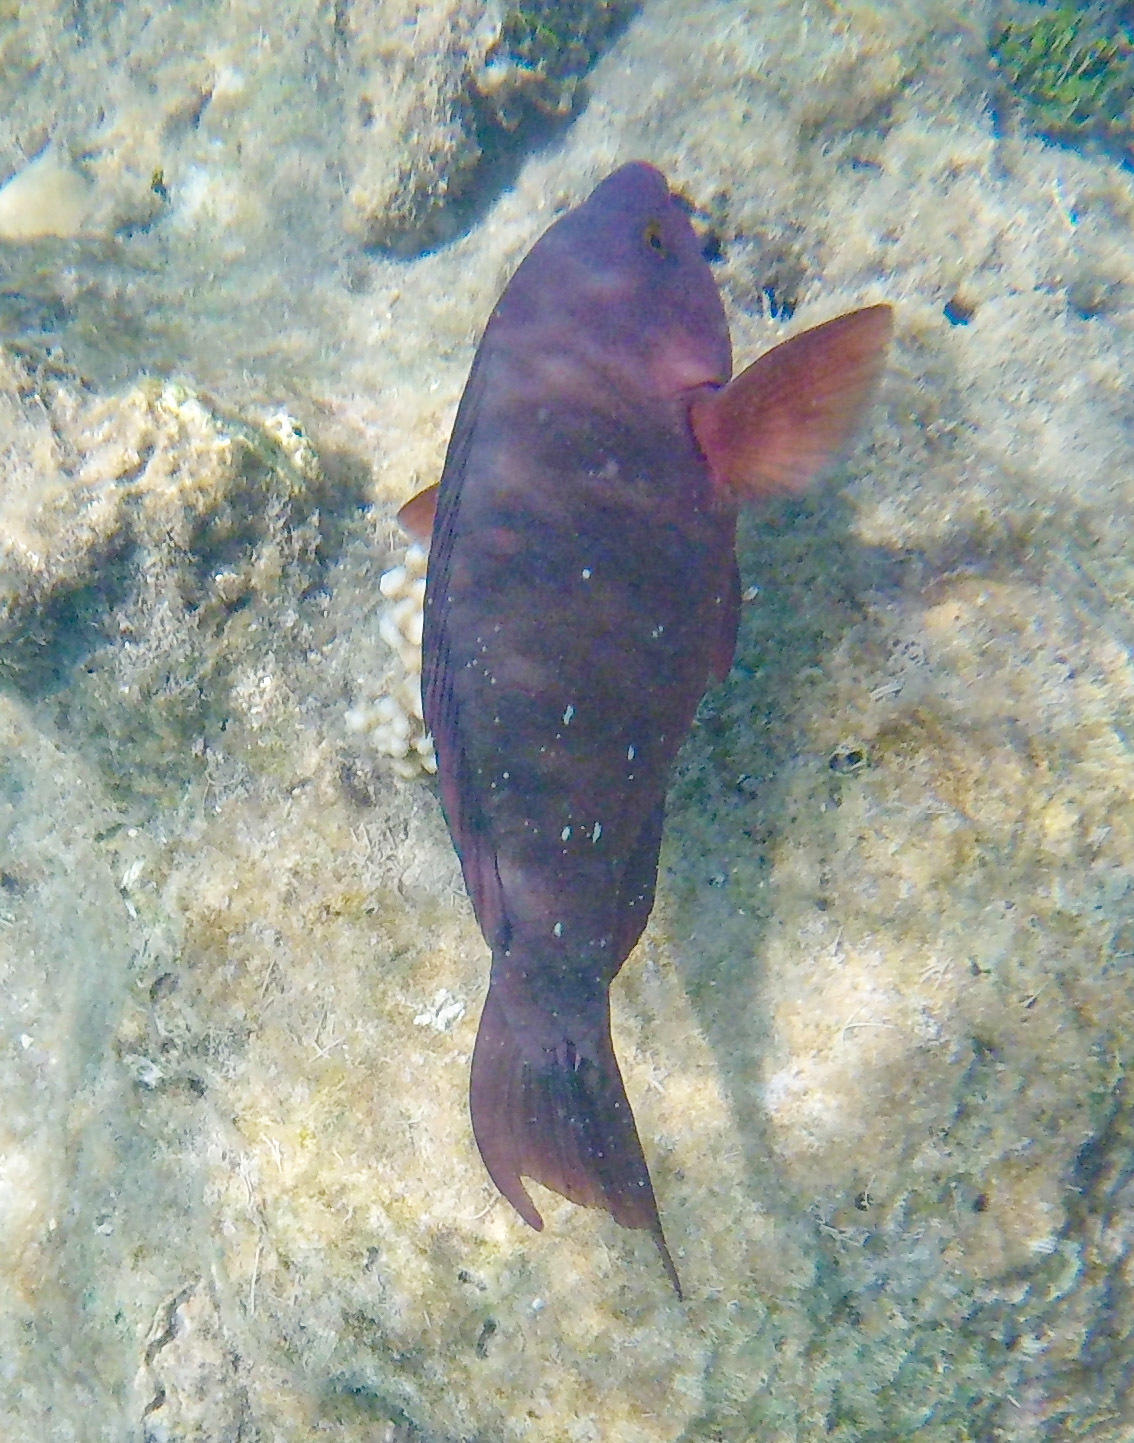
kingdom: Animalia
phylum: Chordata
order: Perciformes
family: Scaridae
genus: Scarus
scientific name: Scarus altipinnis
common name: Minifin parrotfish
